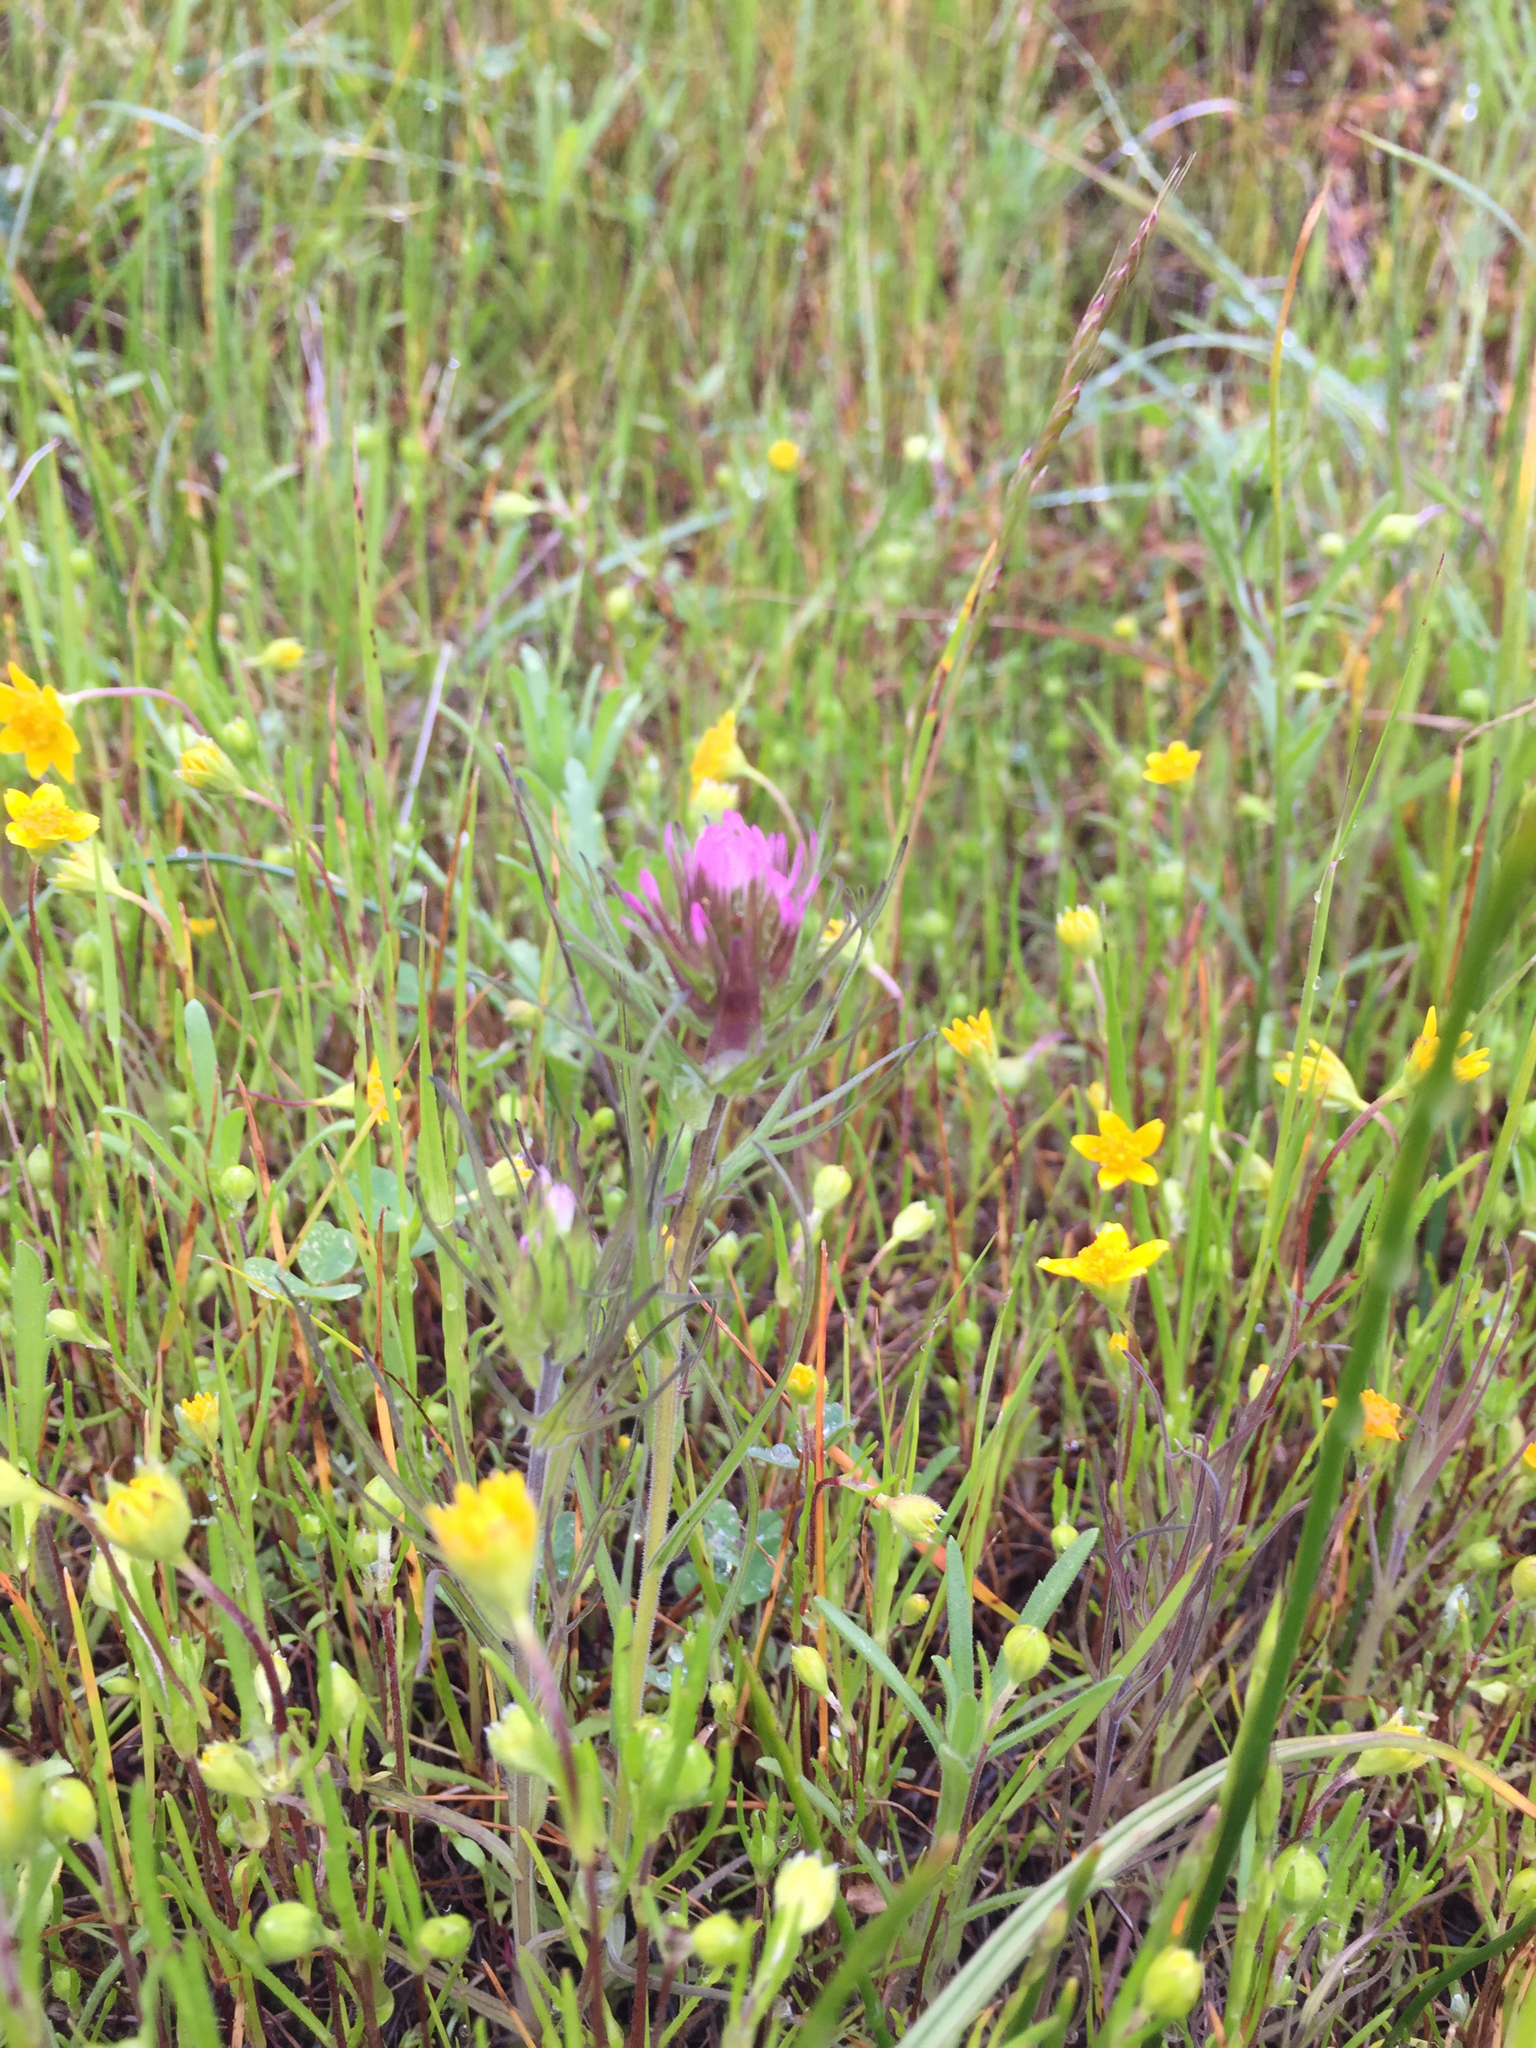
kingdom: Plantae
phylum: Tracheophyta
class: Magnoliopsida
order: Lamiales
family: Orobanchaceae
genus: Castilleja
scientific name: Castilleja densiflora
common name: Dense-flower indian paintbrush
